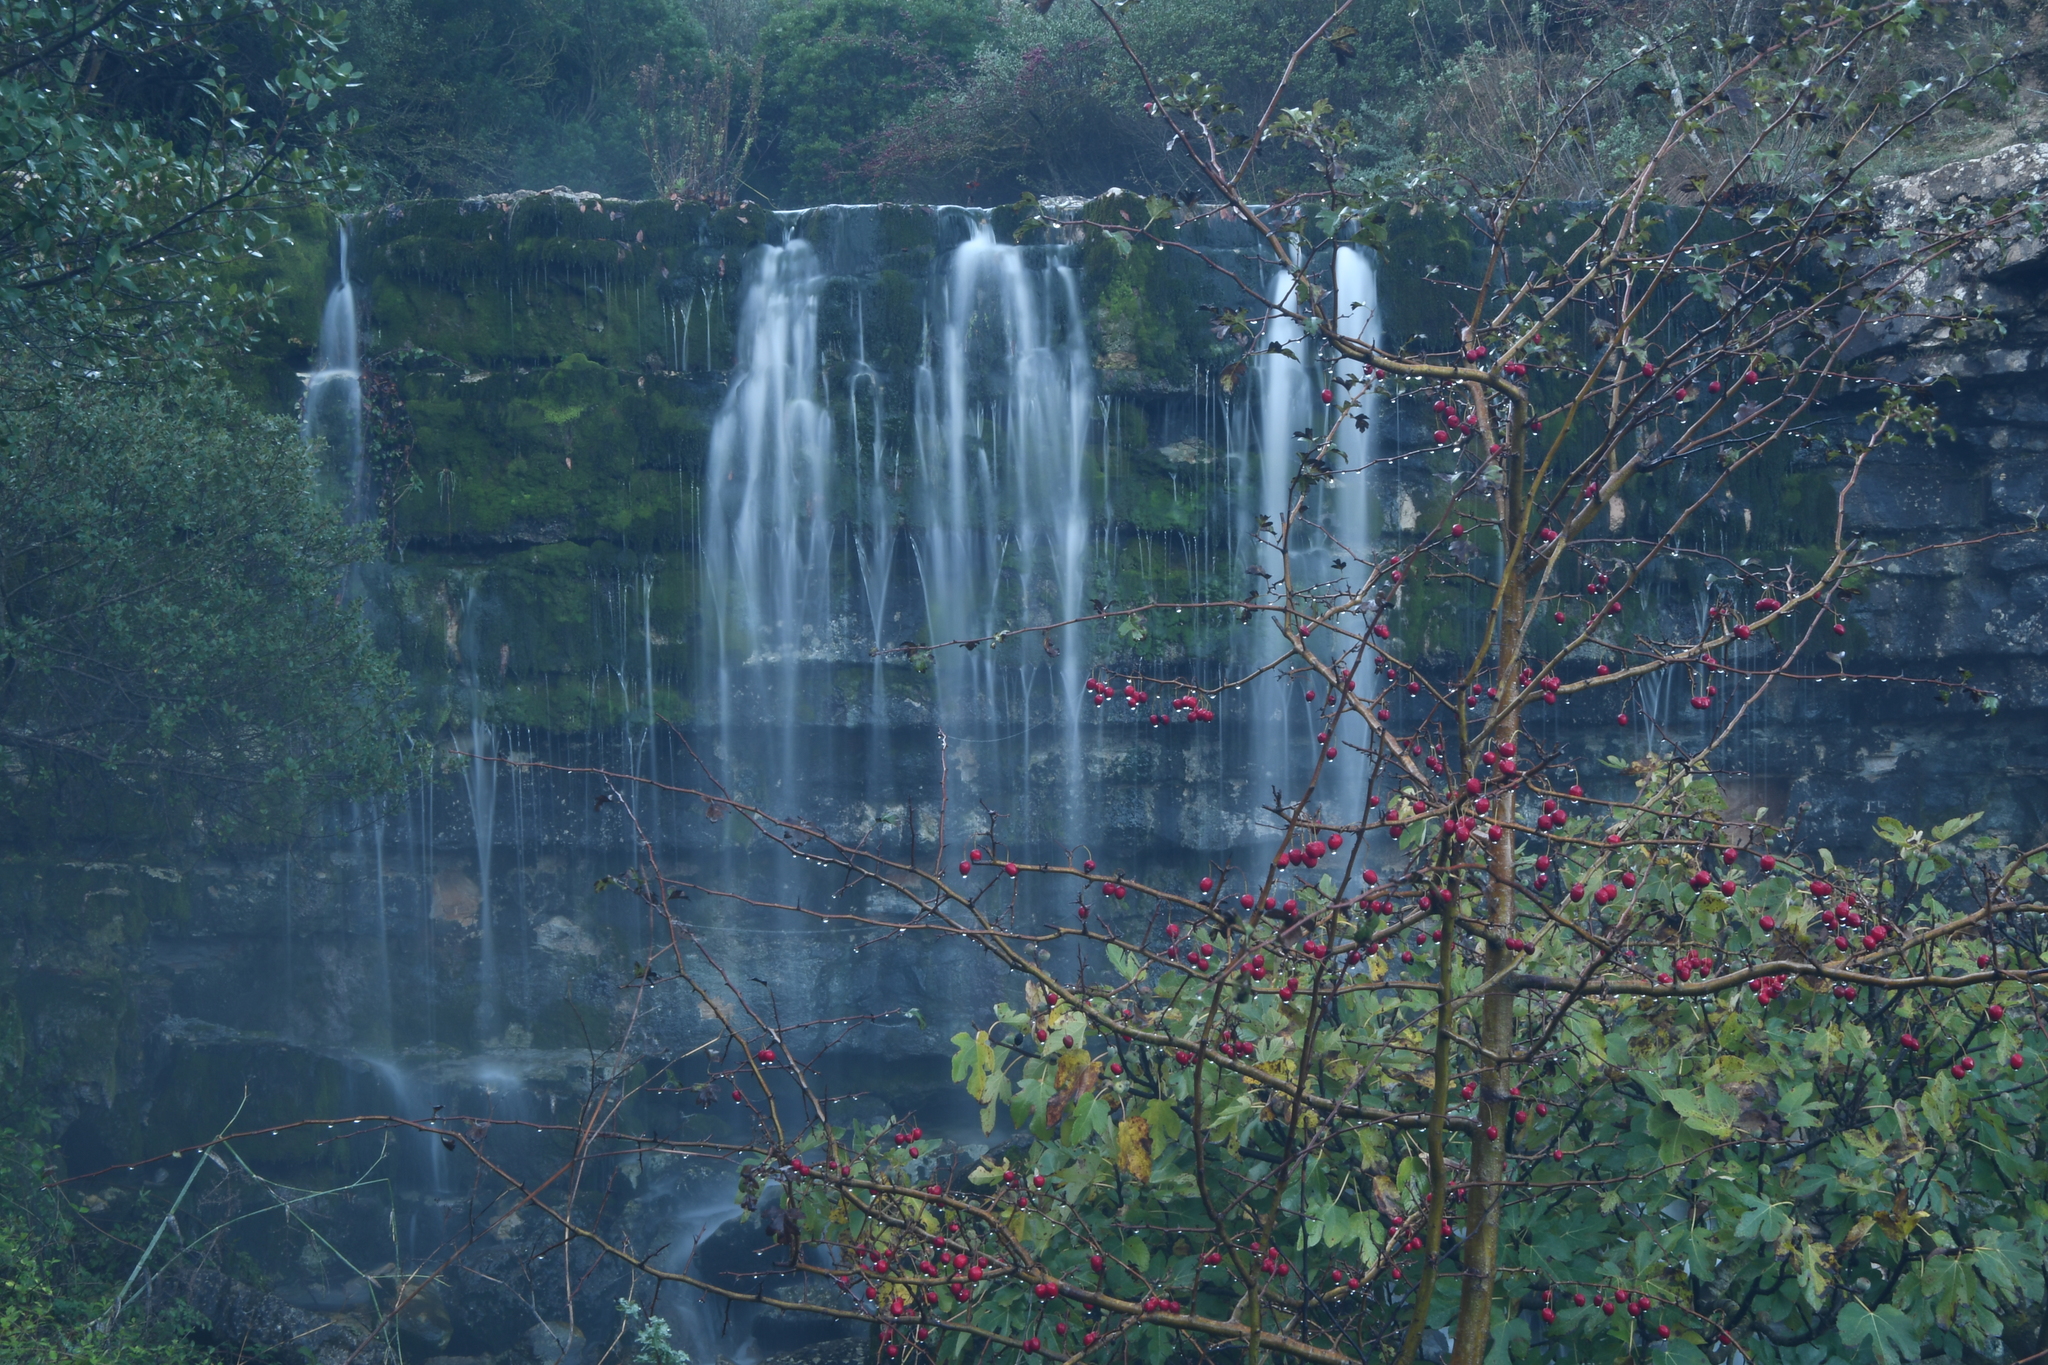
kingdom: Plantae
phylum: Tracheophyta
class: Magnoliopsida
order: Rosales
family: Rosaceae
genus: Crataegus
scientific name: Crataegus monogyna
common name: Hawthorn
